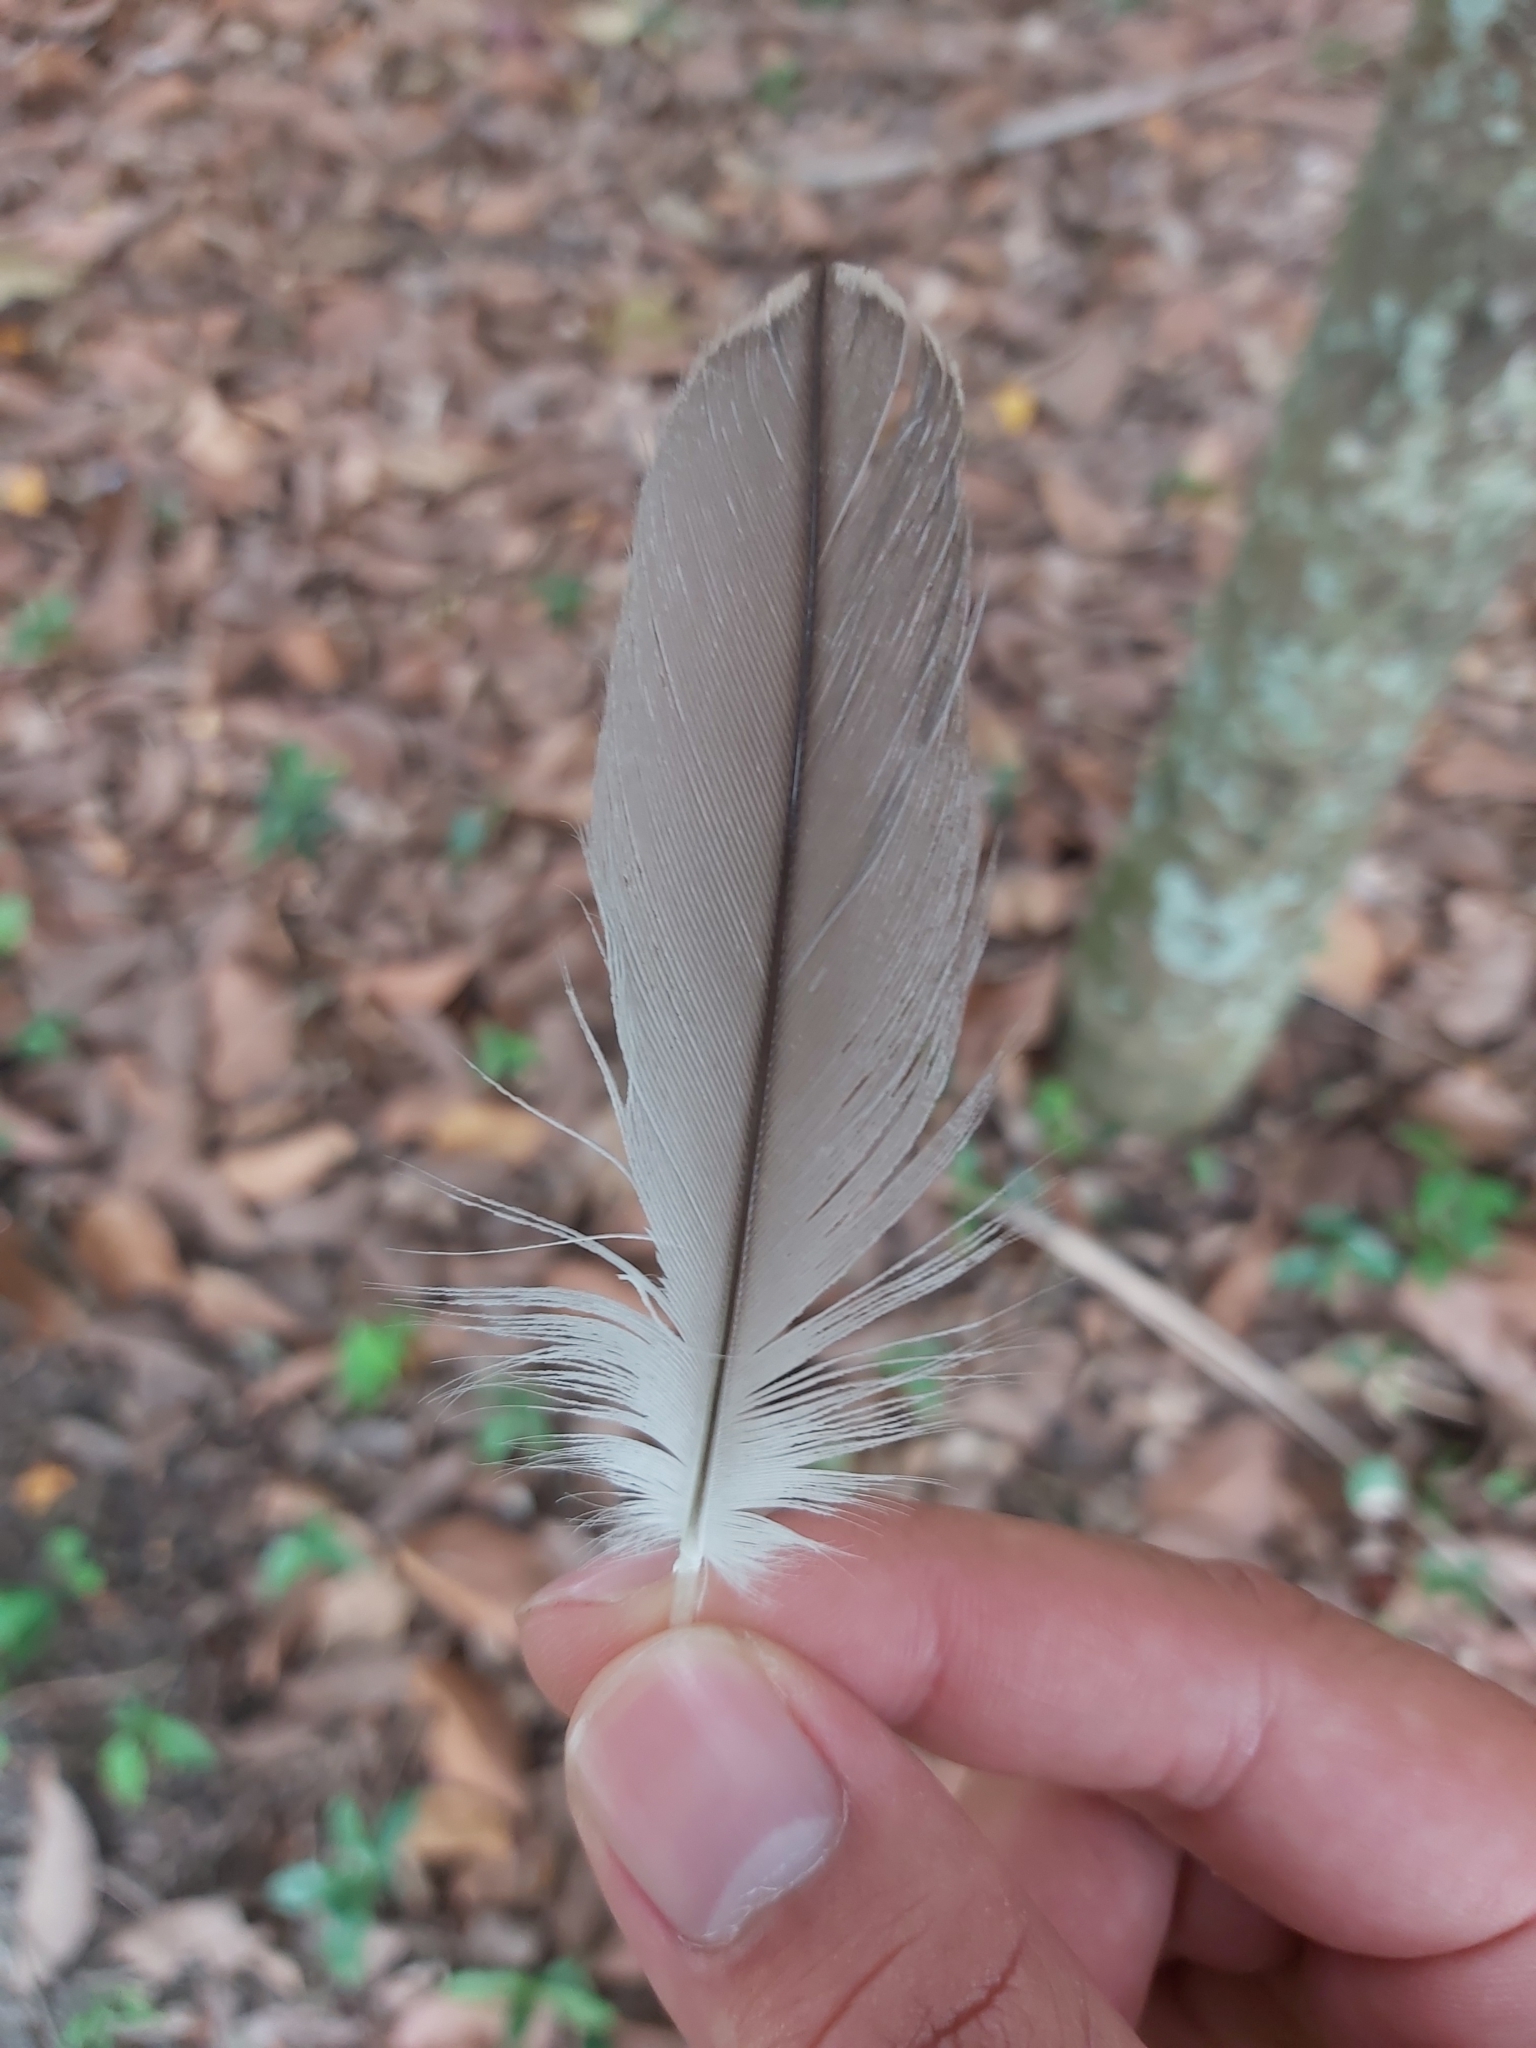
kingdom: Animalia
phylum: Chordata
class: Aves
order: Charadriiformes
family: Burhinidae
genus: Burhinus
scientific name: Burhinus grallarius
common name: Bush stone-curlew
